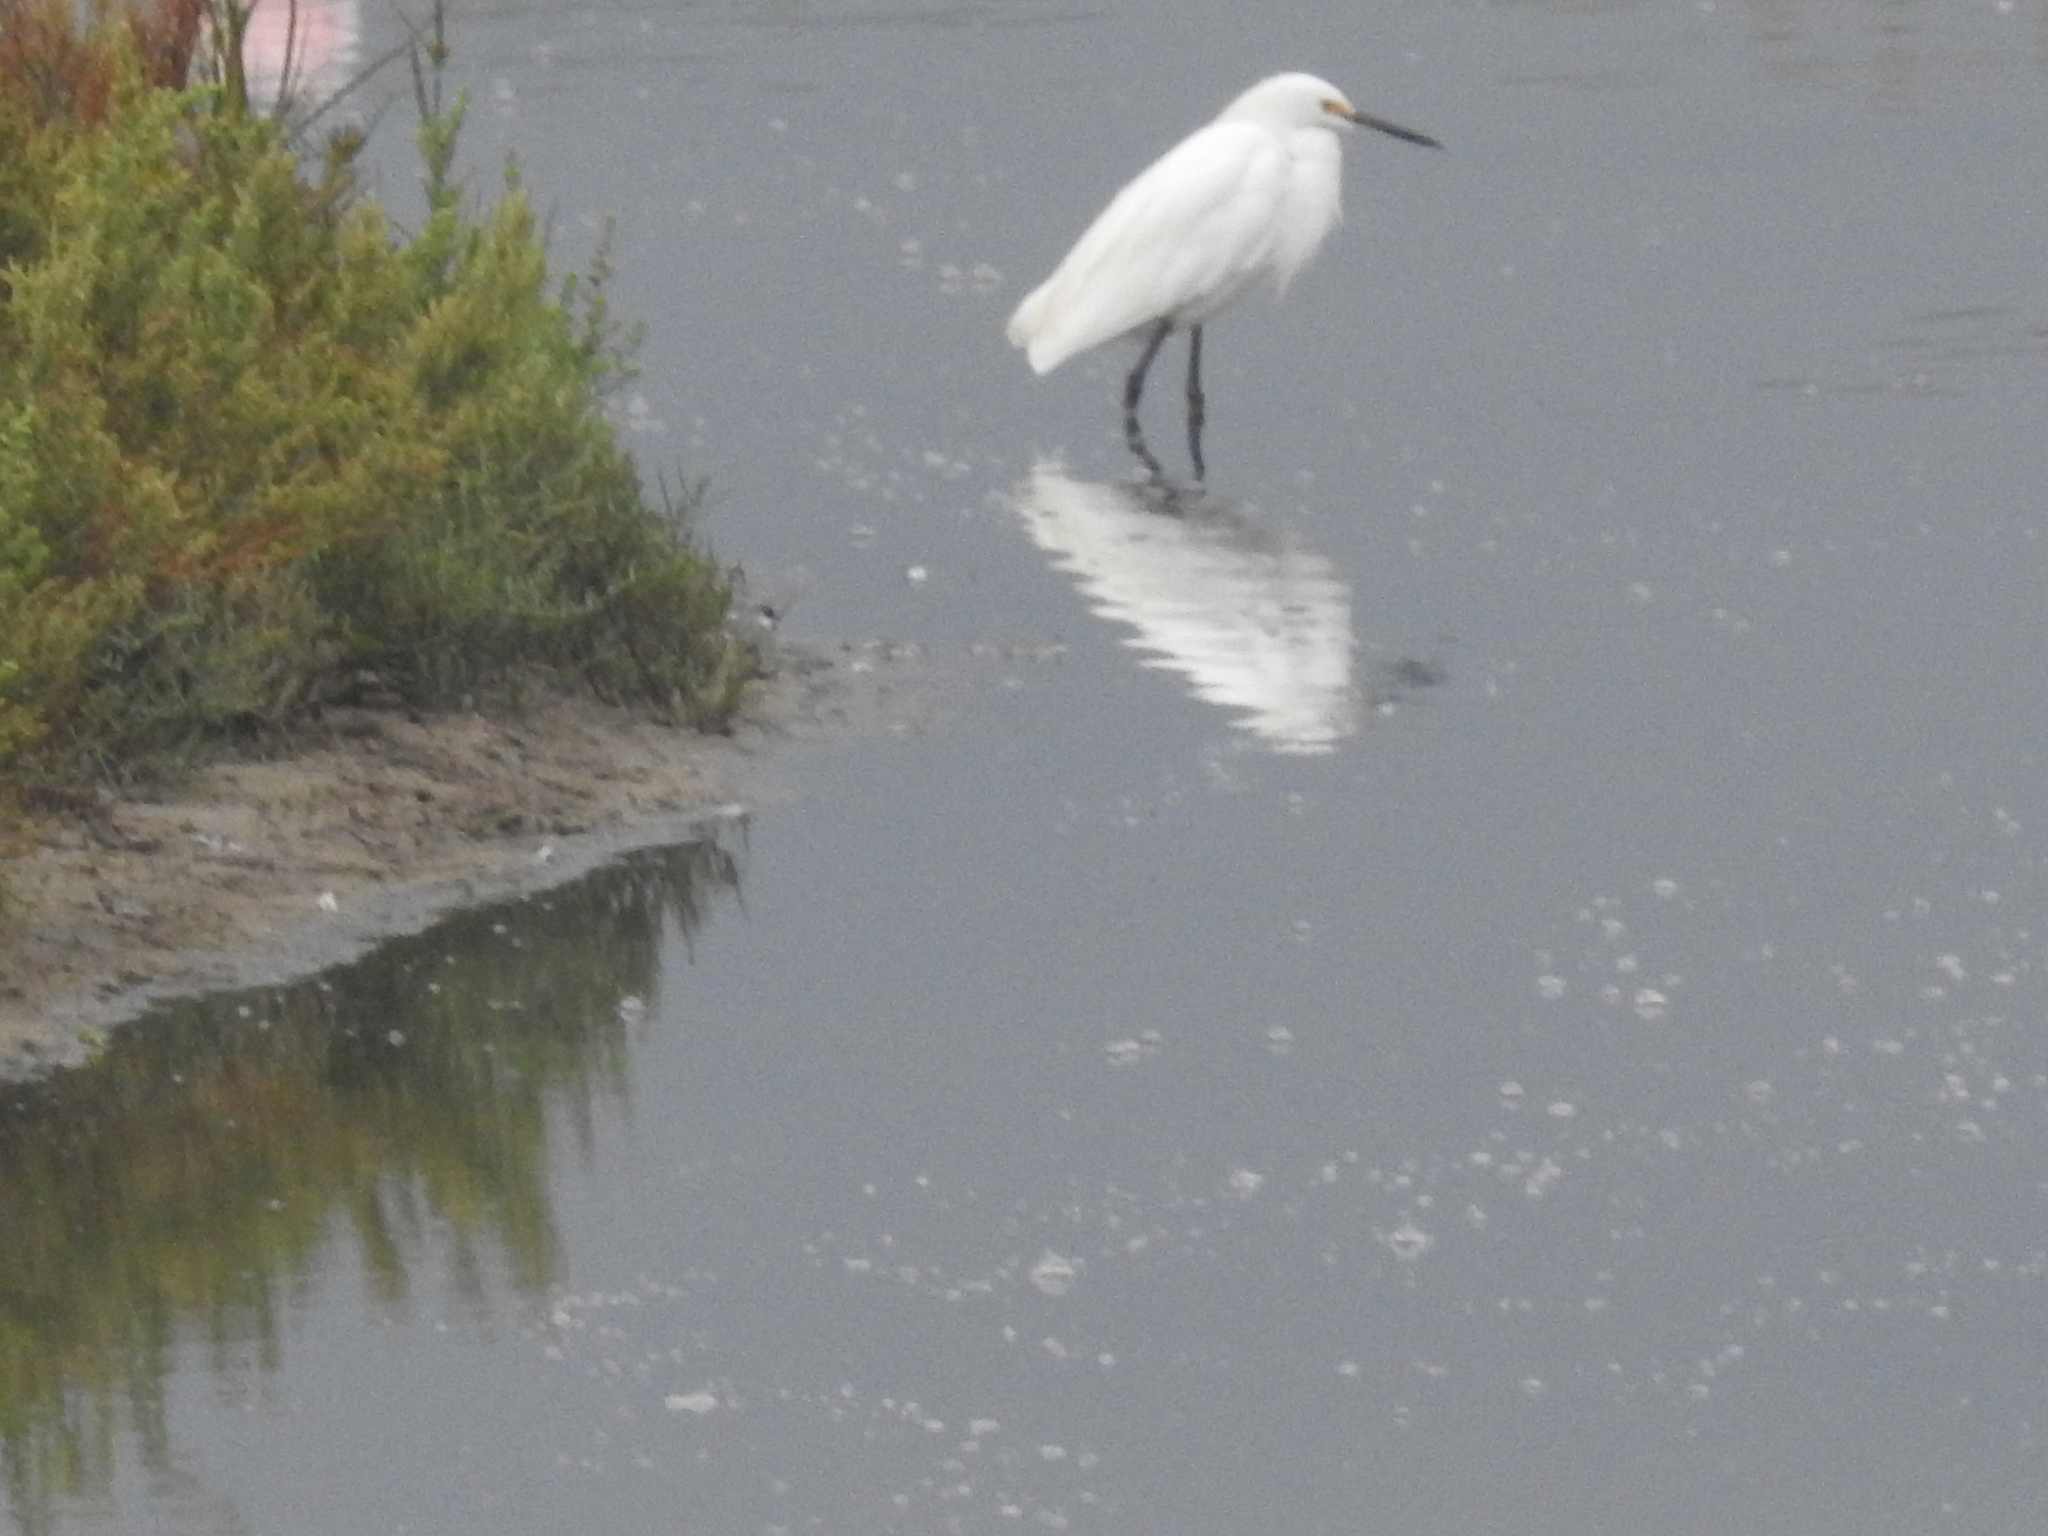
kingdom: Animalia
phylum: Chordata
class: Aves
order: Pelecaniformes
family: Ardeidae
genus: Egretta
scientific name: Egretta thula
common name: Snowy egret
